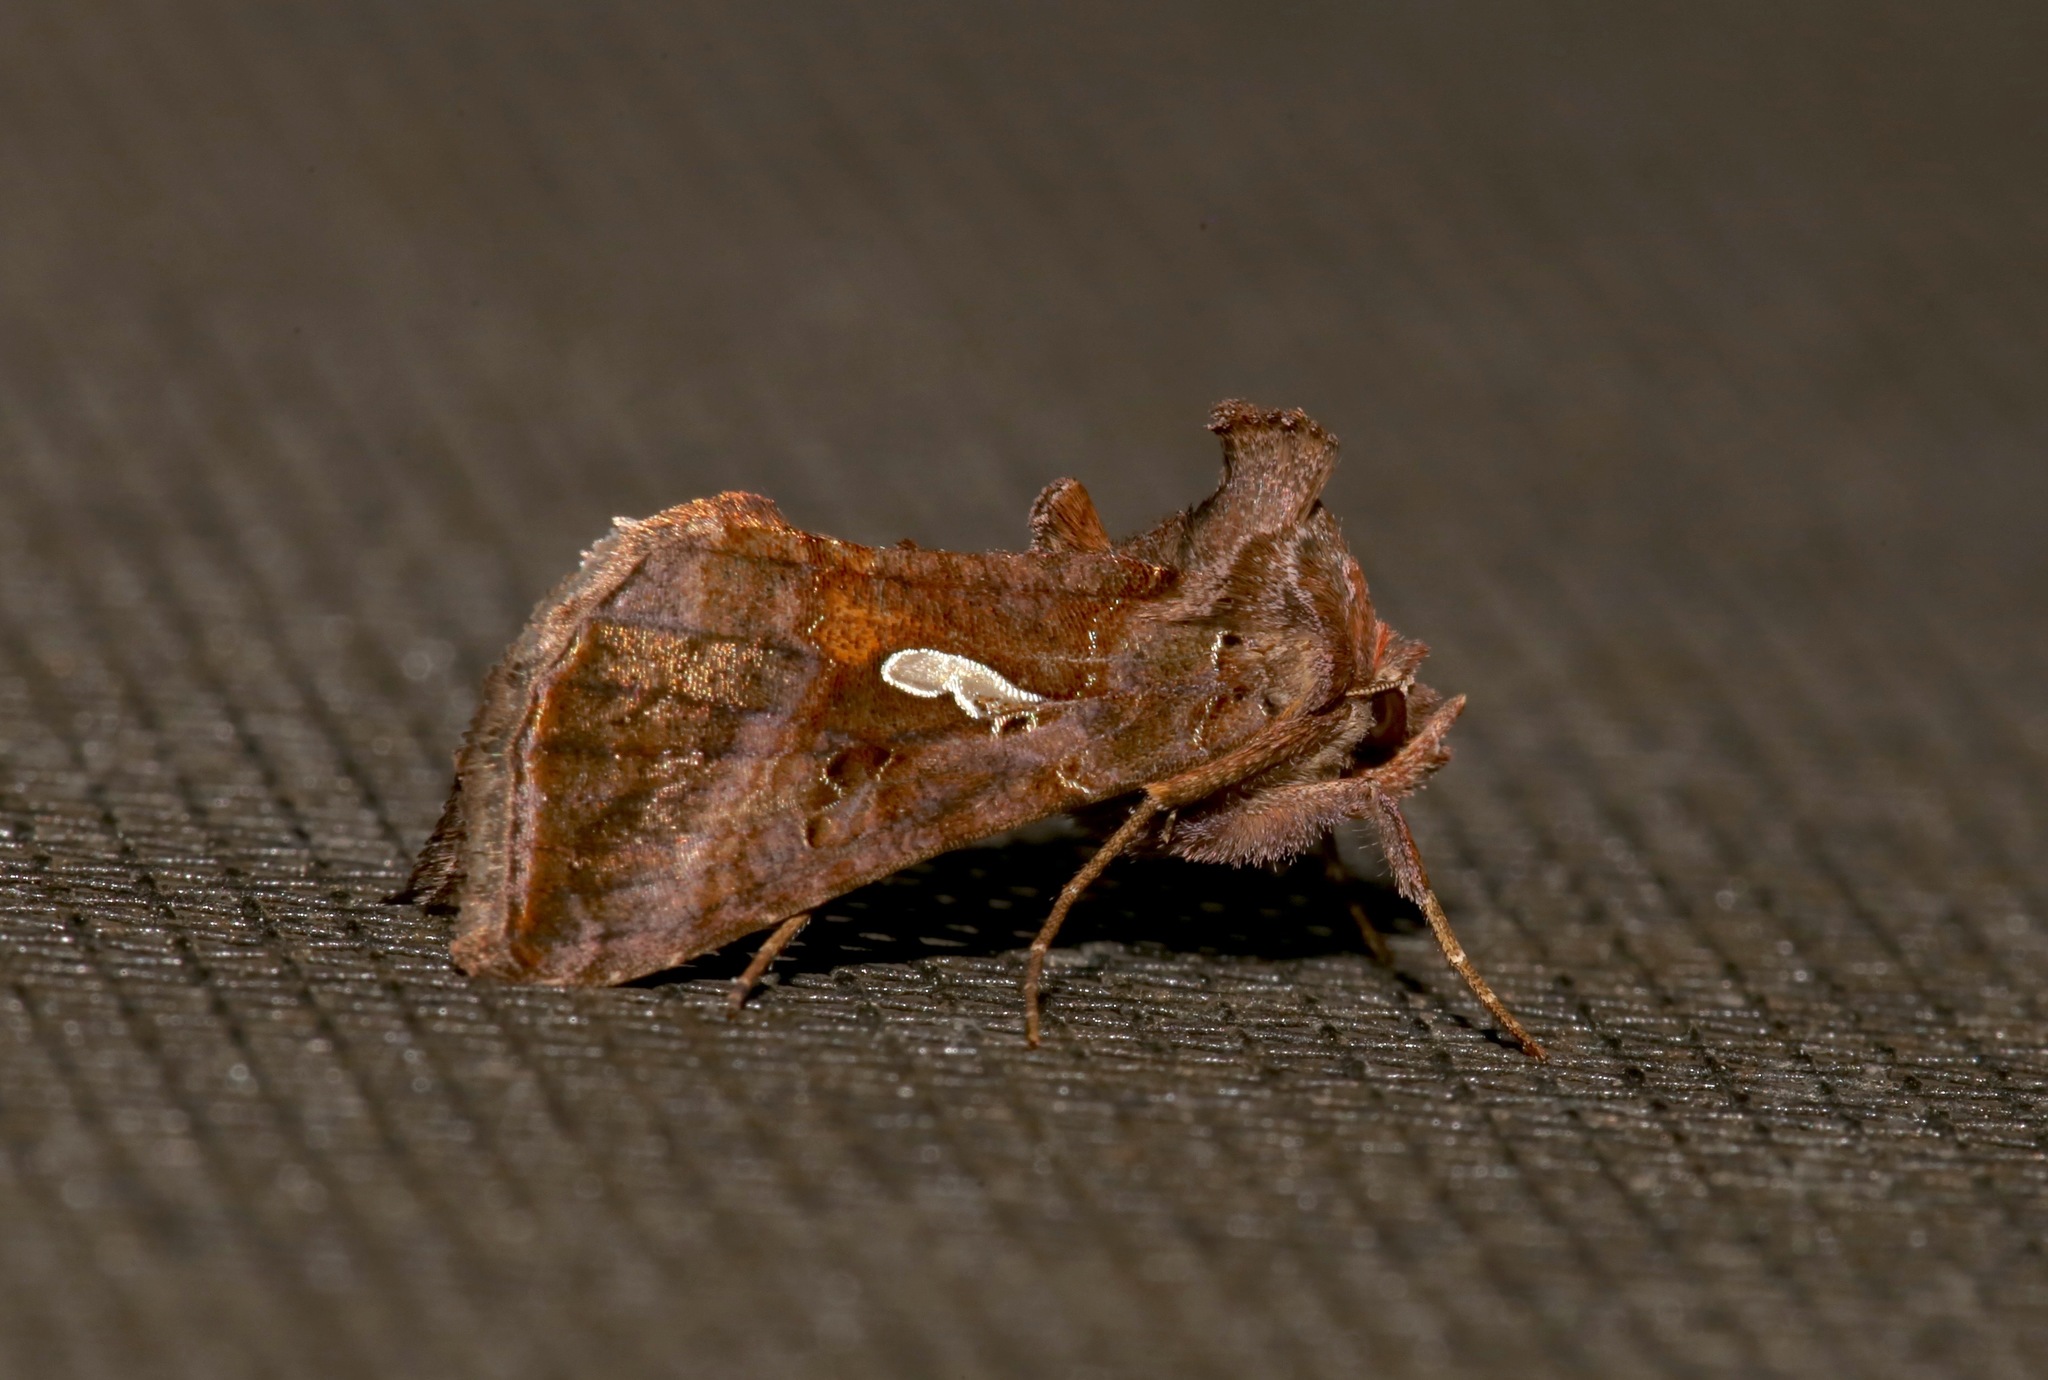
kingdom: Animalia
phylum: Arthropoda
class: Insecta
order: Lepidoptera
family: Noctuidae
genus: Autographa
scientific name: Autographa precationis
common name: Common looper moth
